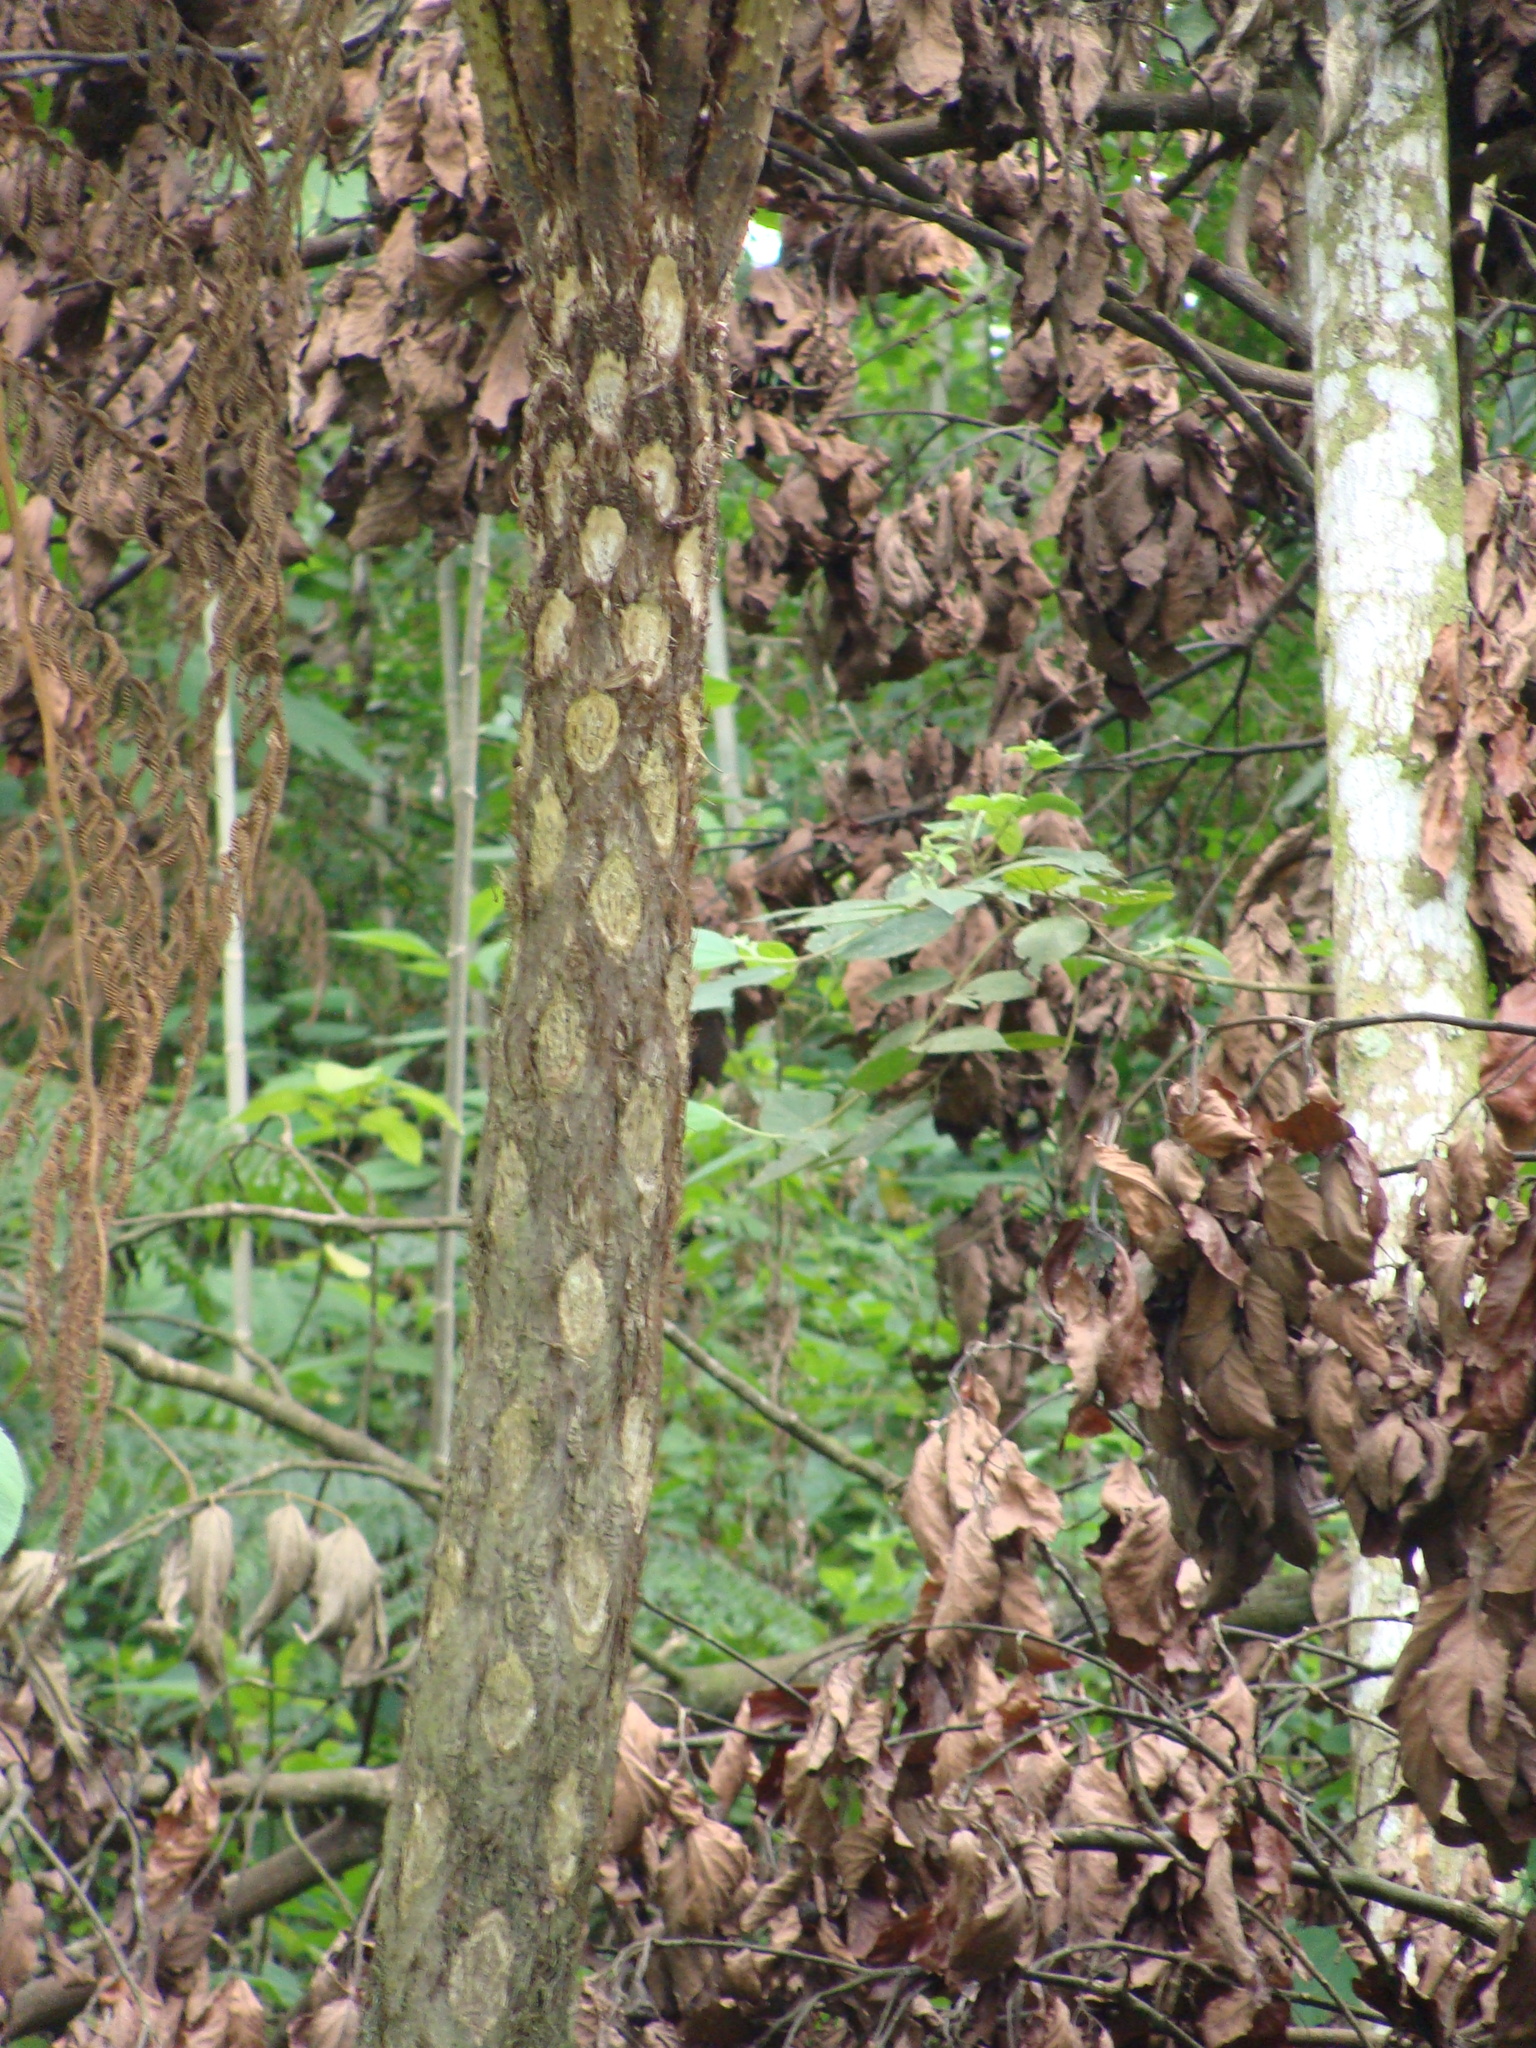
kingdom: Plantae
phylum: Tracheophyta
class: Polypodiopsida
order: Cyatheales
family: Cyatheaceae
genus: Cyathea
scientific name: Cyathea costaricensis
